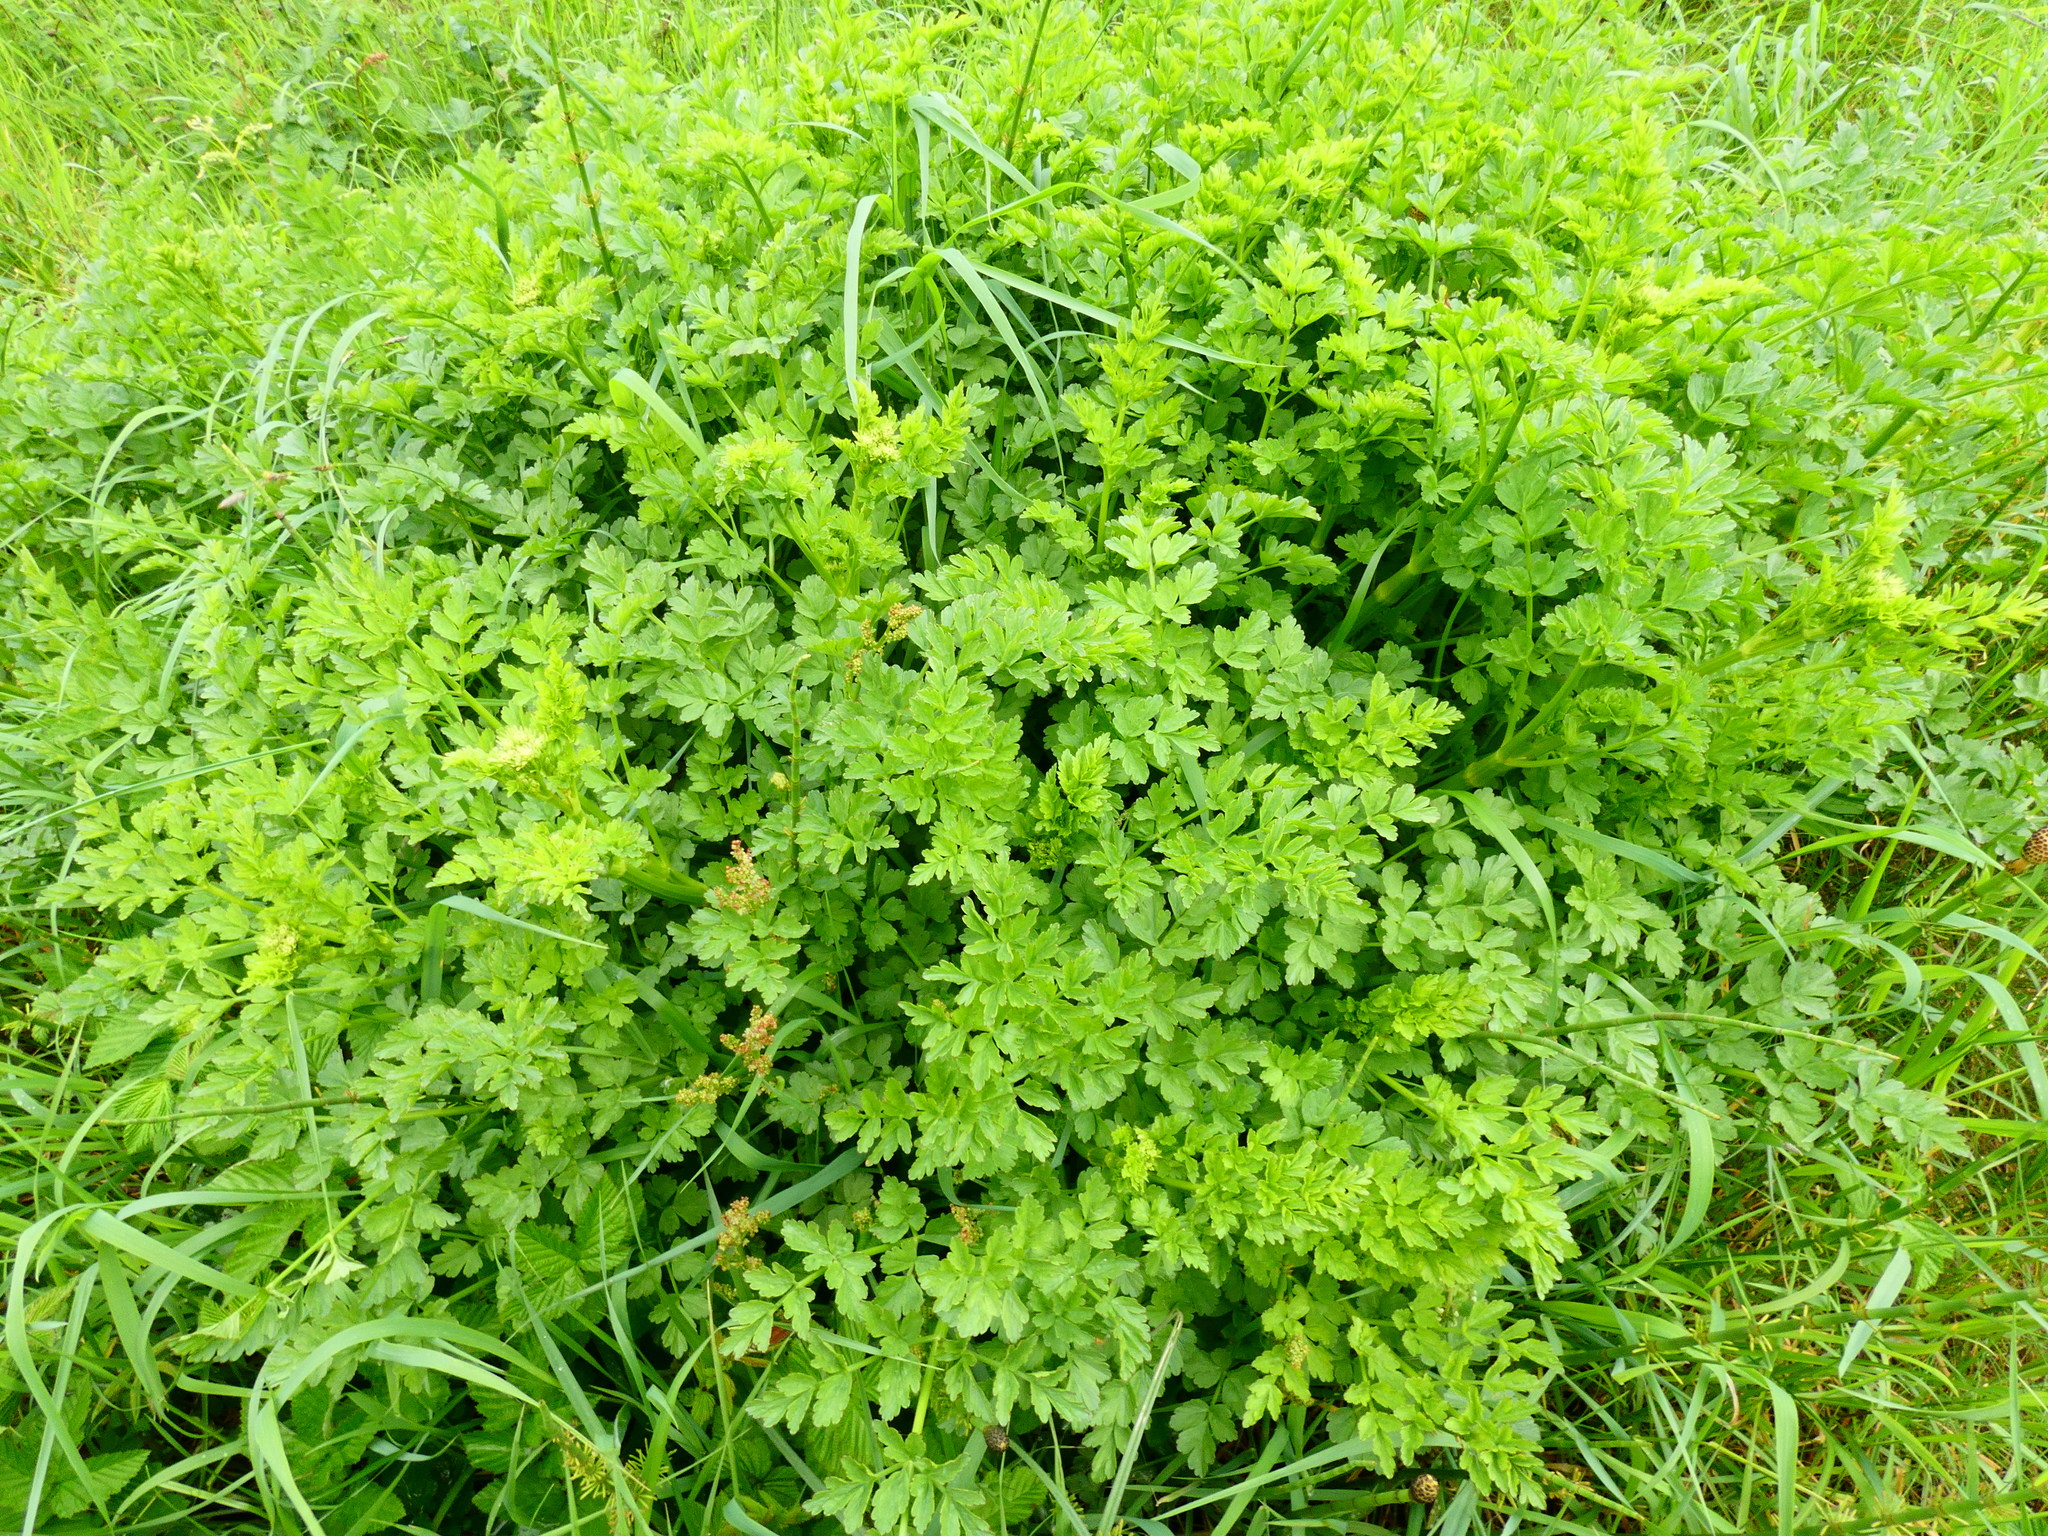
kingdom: Plantae
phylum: Tracheophyta
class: Magnoliopsida
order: Apiales
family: Apiaceae
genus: Oenanthe
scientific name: Oenanthe crocata
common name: Hemlock water-dropwort
